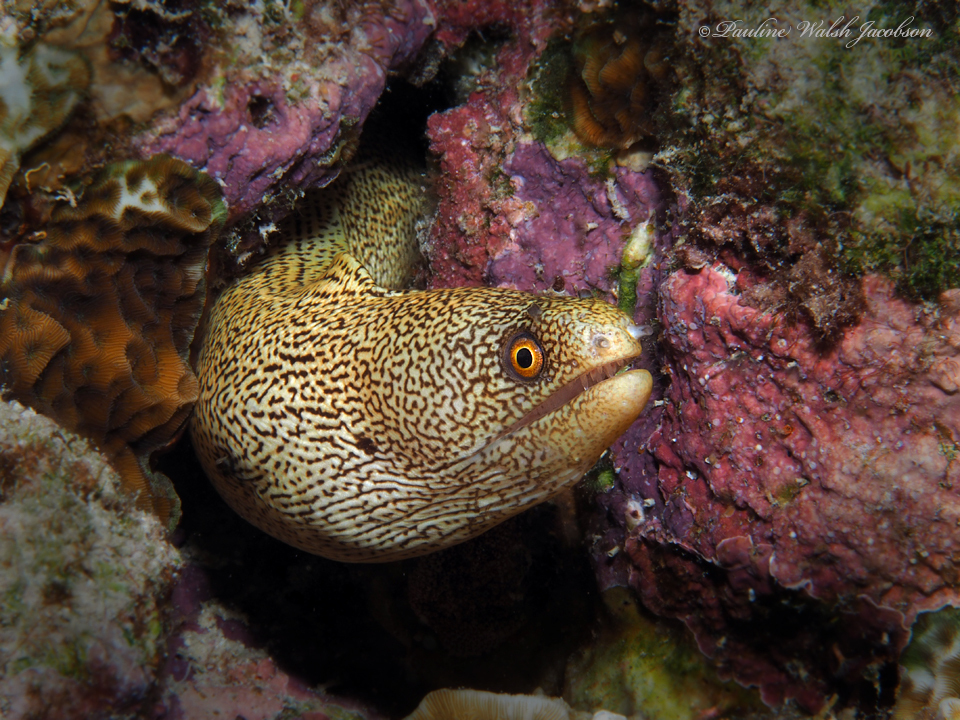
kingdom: Animalia
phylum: Chordata
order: Anguilliformes
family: Muraenidae
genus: Gymnothorax
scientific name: Gymnothorax miliaris
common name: Goldentail moray
